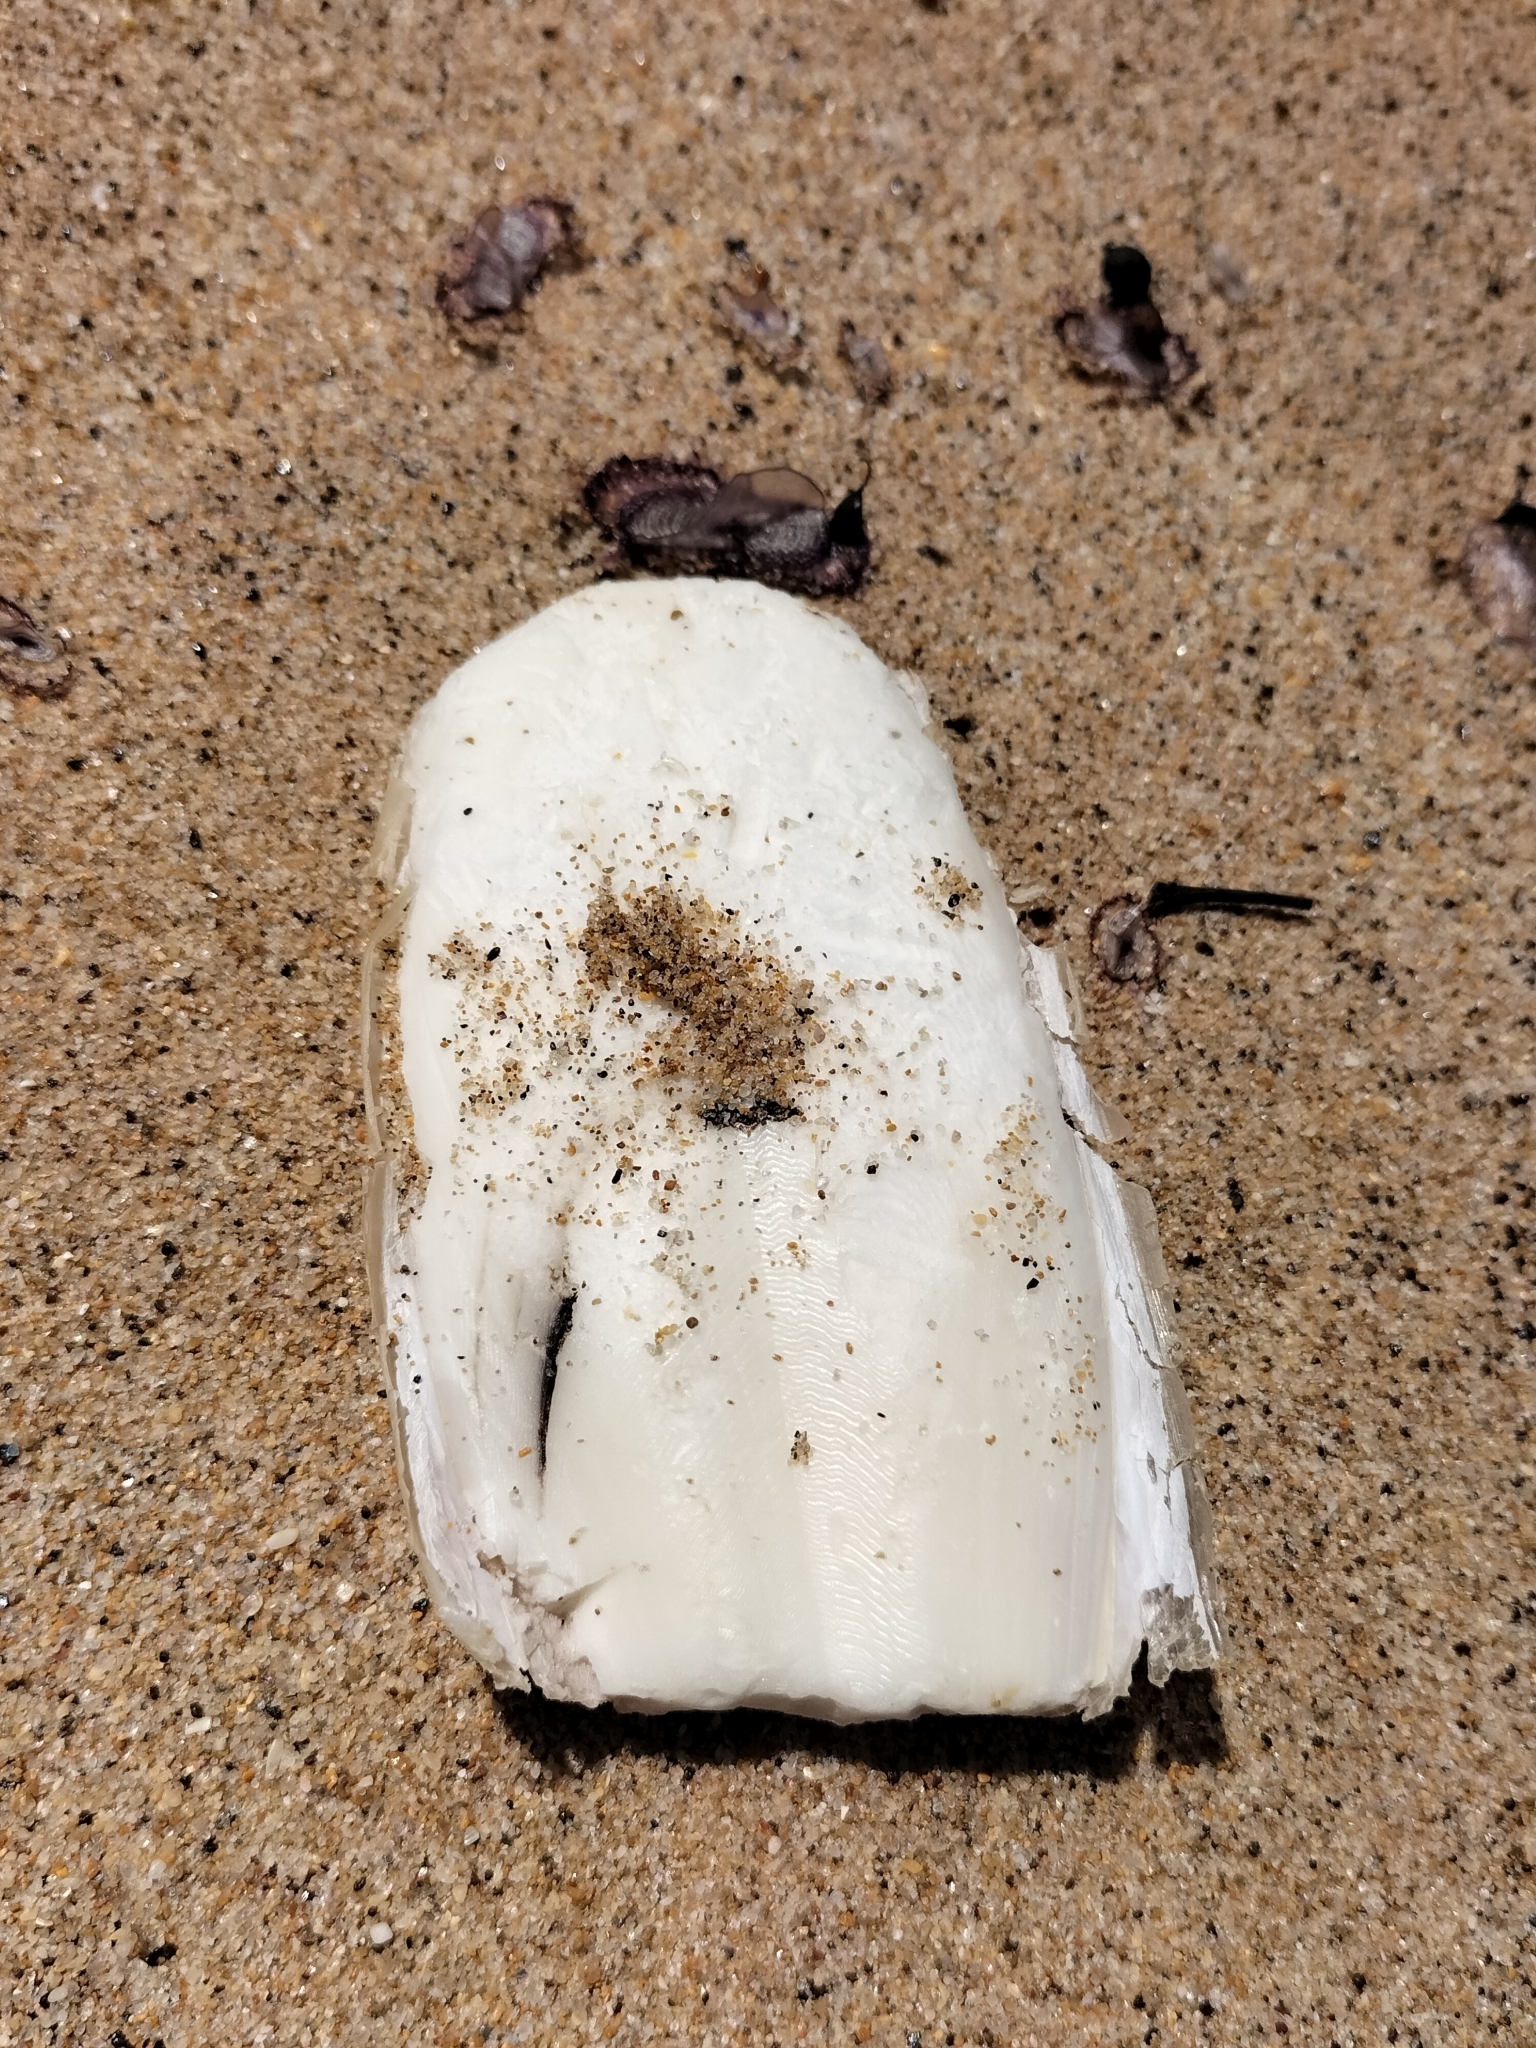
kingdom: Animalia
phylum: Mollusca
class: Cephalopoda
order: Sepiida
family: Sepiidae
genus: Ascarosepion
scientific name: Ascarosepion apama
